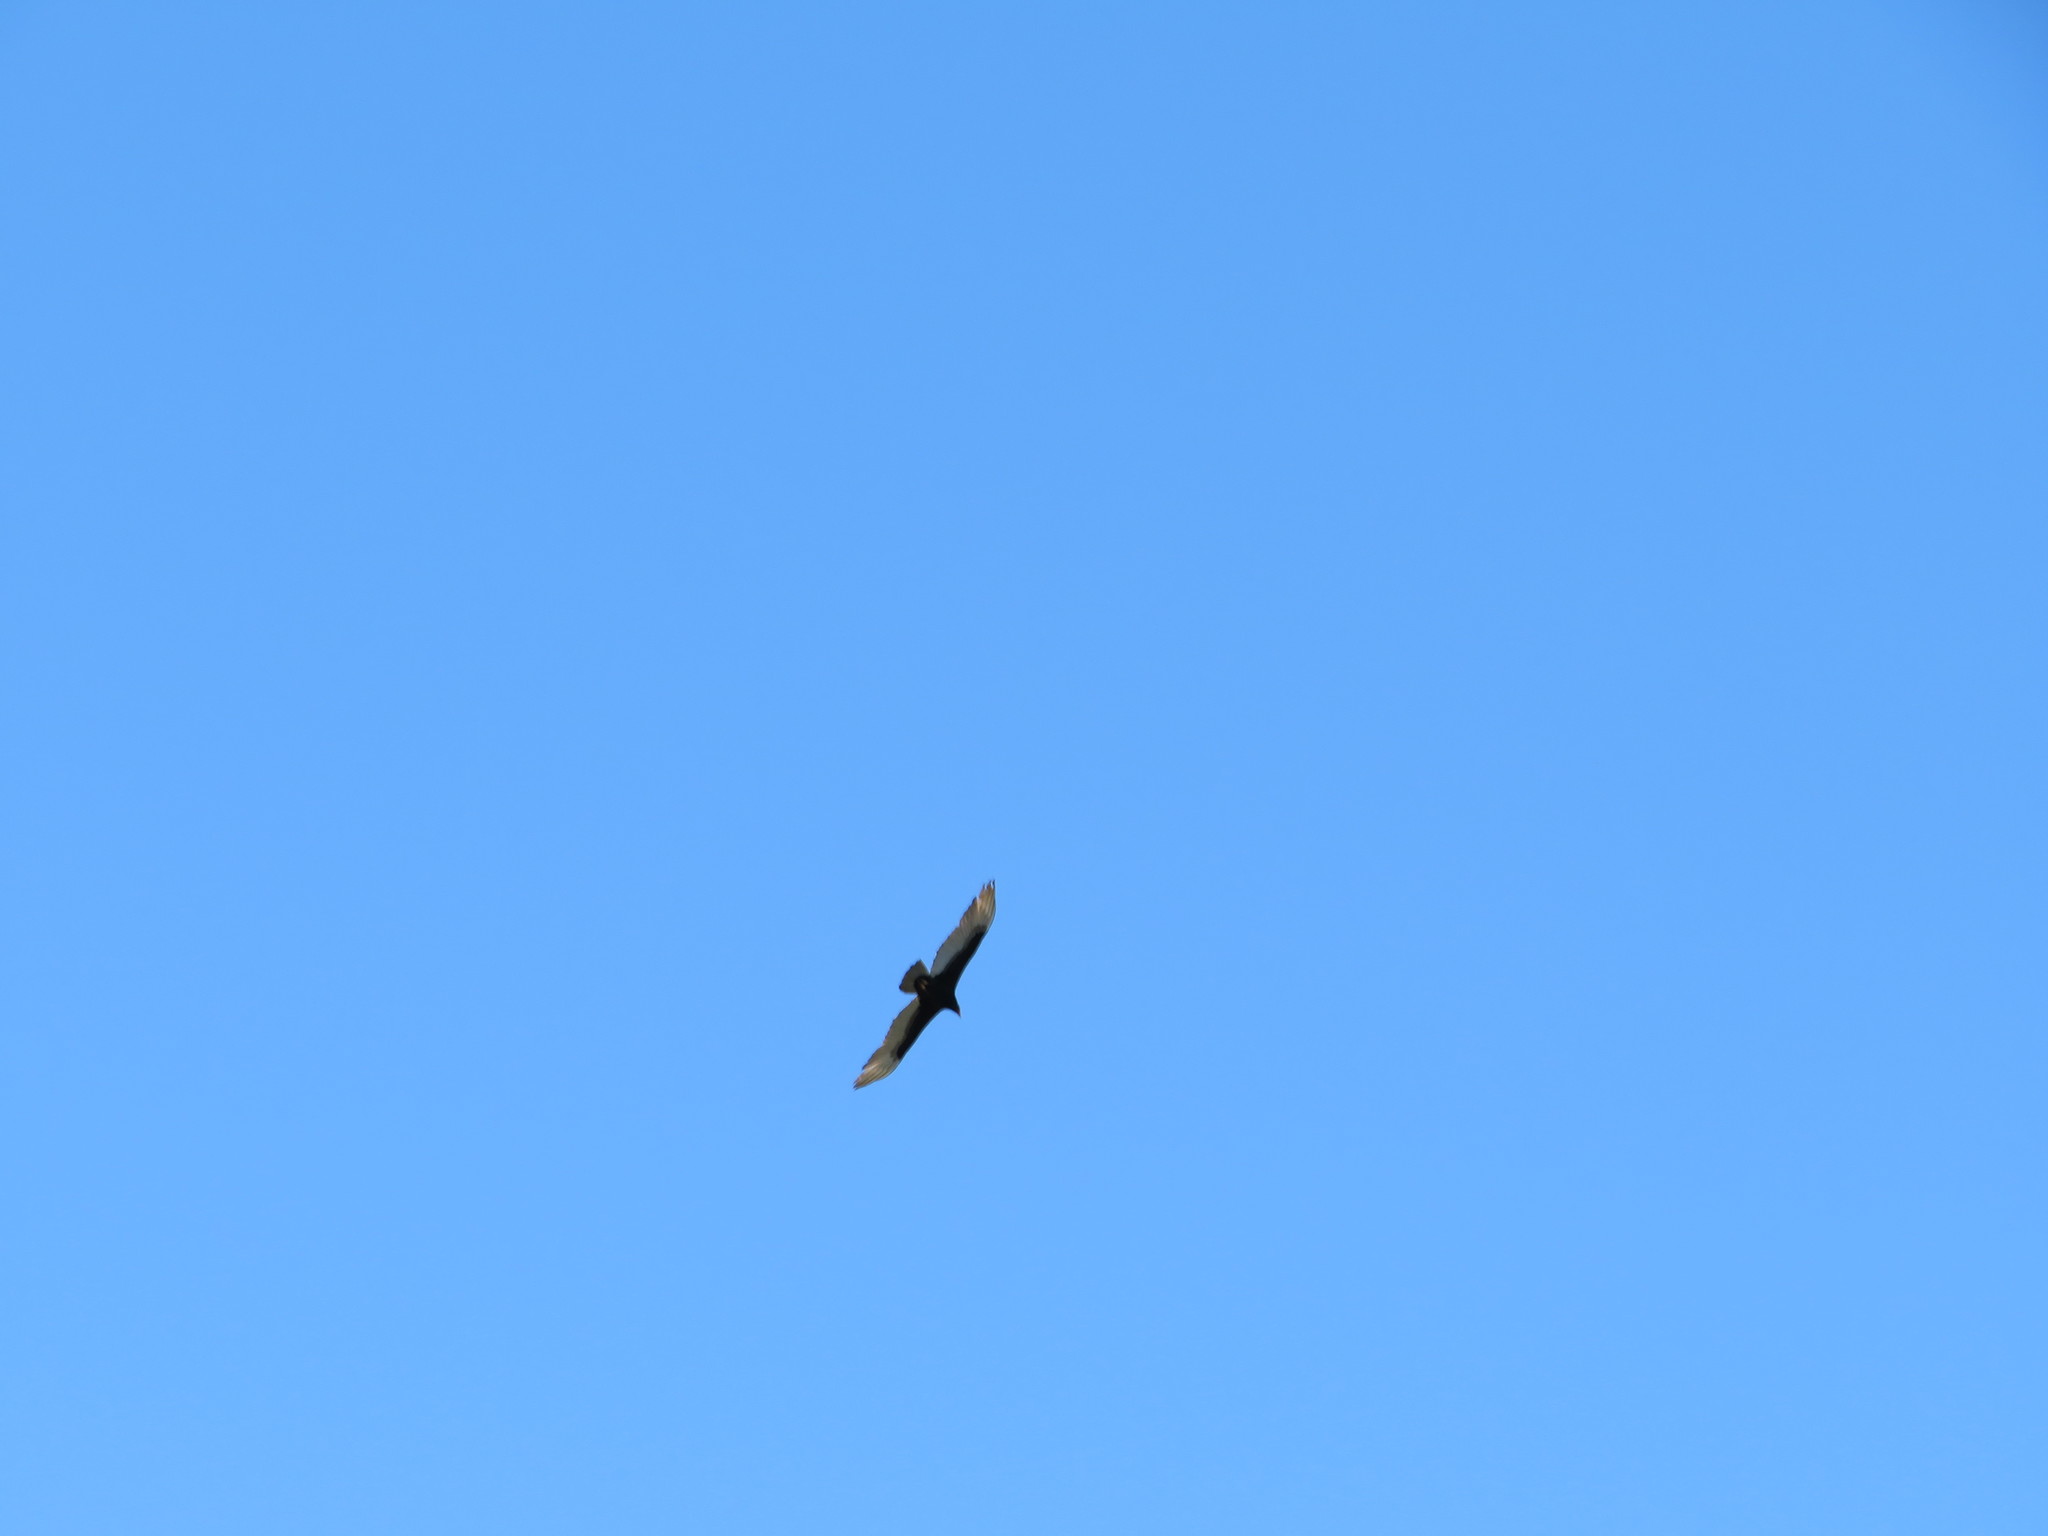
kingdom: Animalia
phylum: Chordata
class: Aves
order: Accipitriformes
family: Cathartidae
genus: Cathartes
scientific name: Cathartes aura
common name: Turkey vulture
